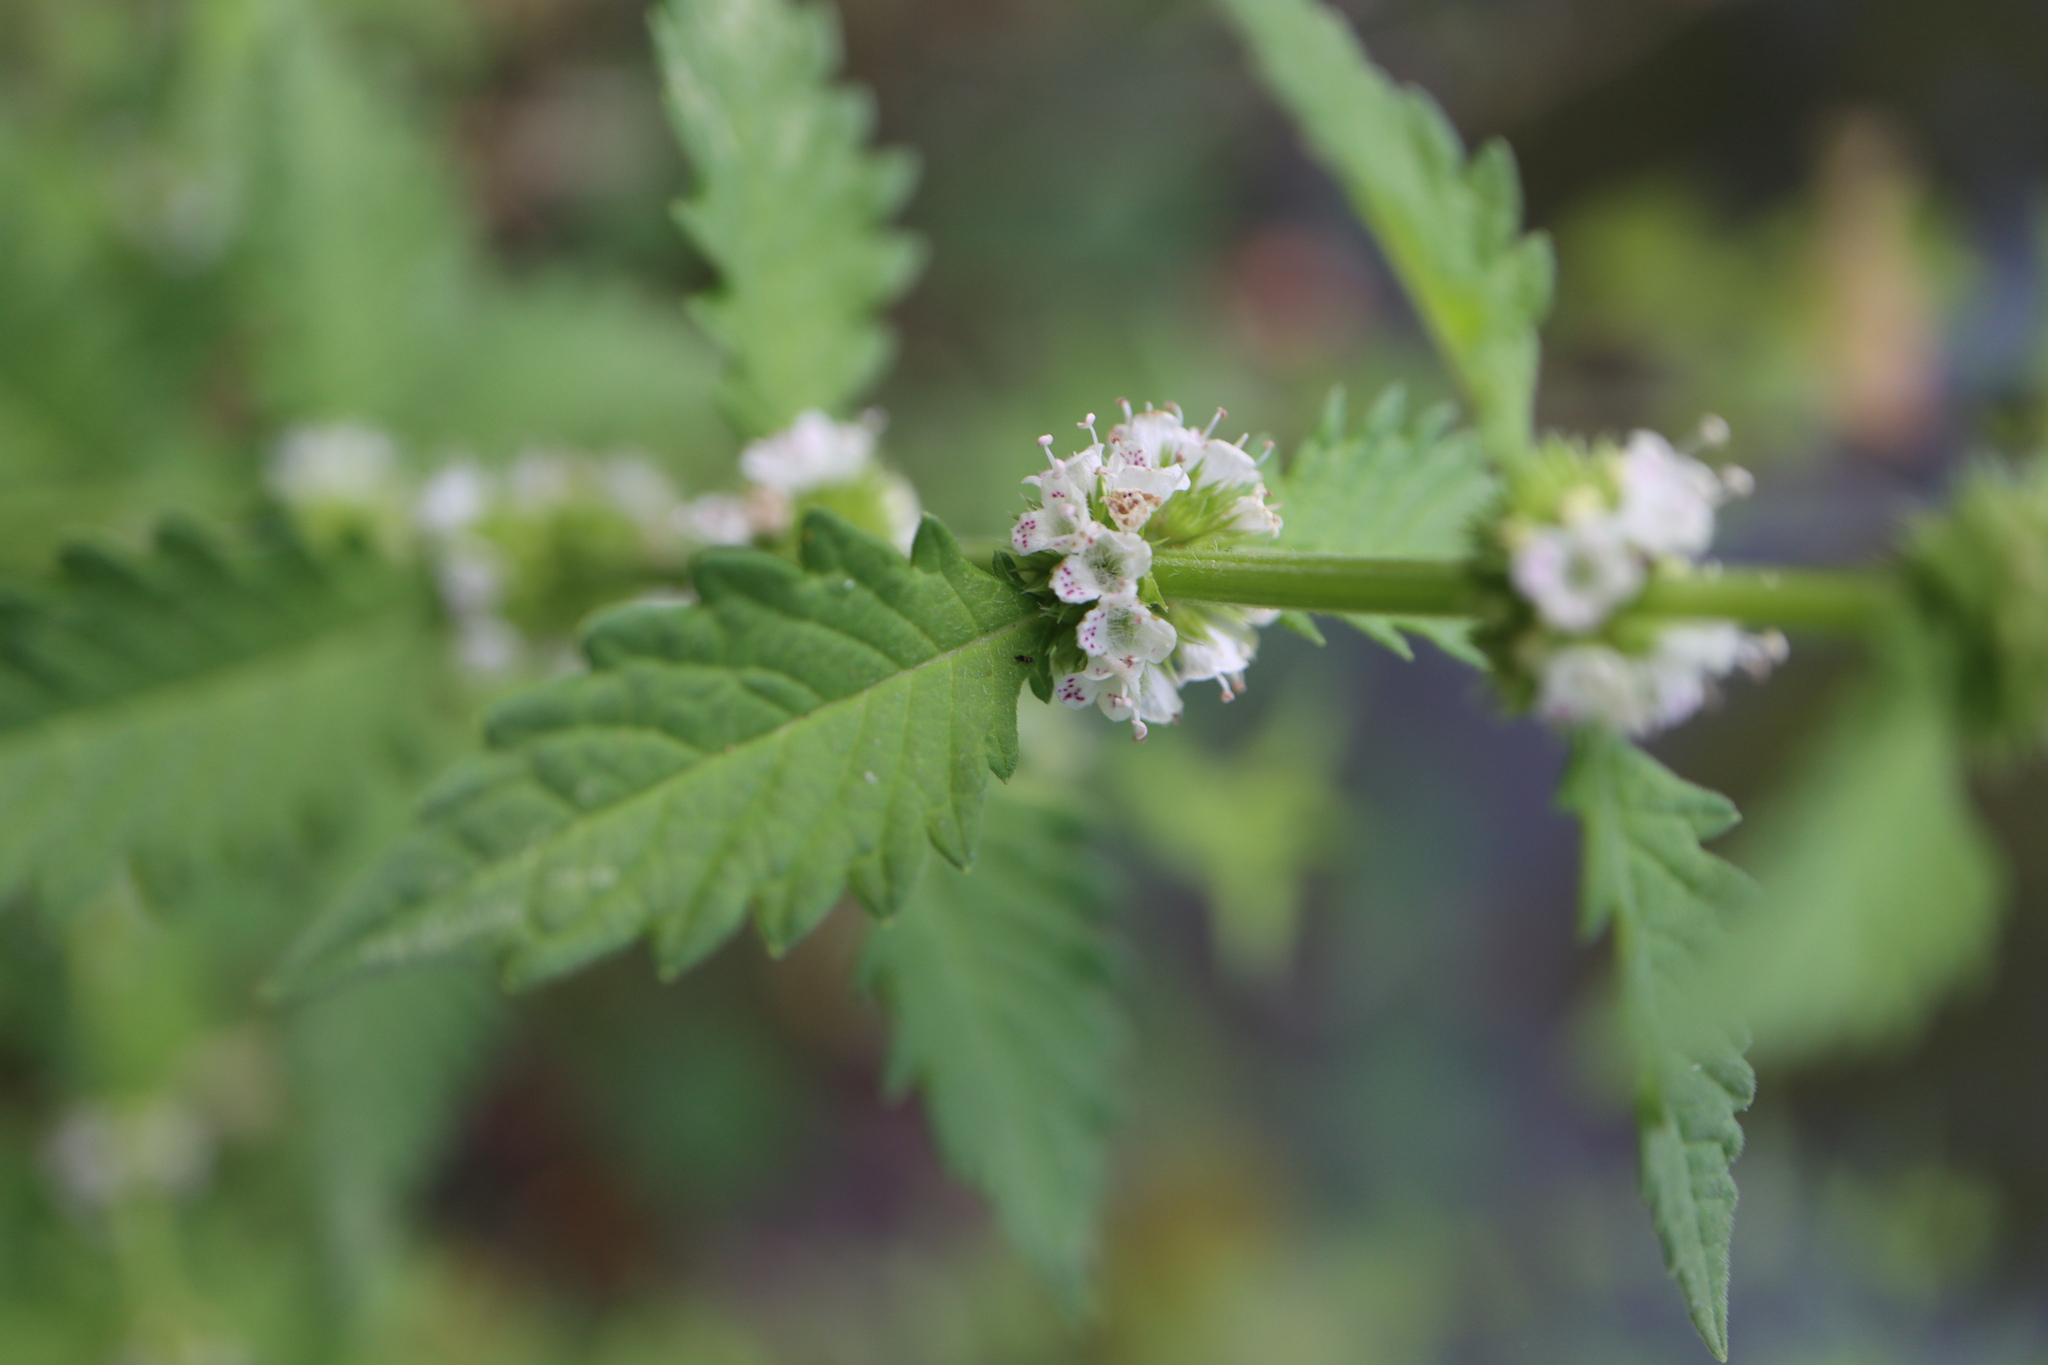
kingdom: Plantae
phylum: Tracheophyta
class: Magnoliopsida
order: Lamiales
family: Lamiaceae
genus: Lycopus
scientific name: Lycopus europaeus
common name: European bugleweed
